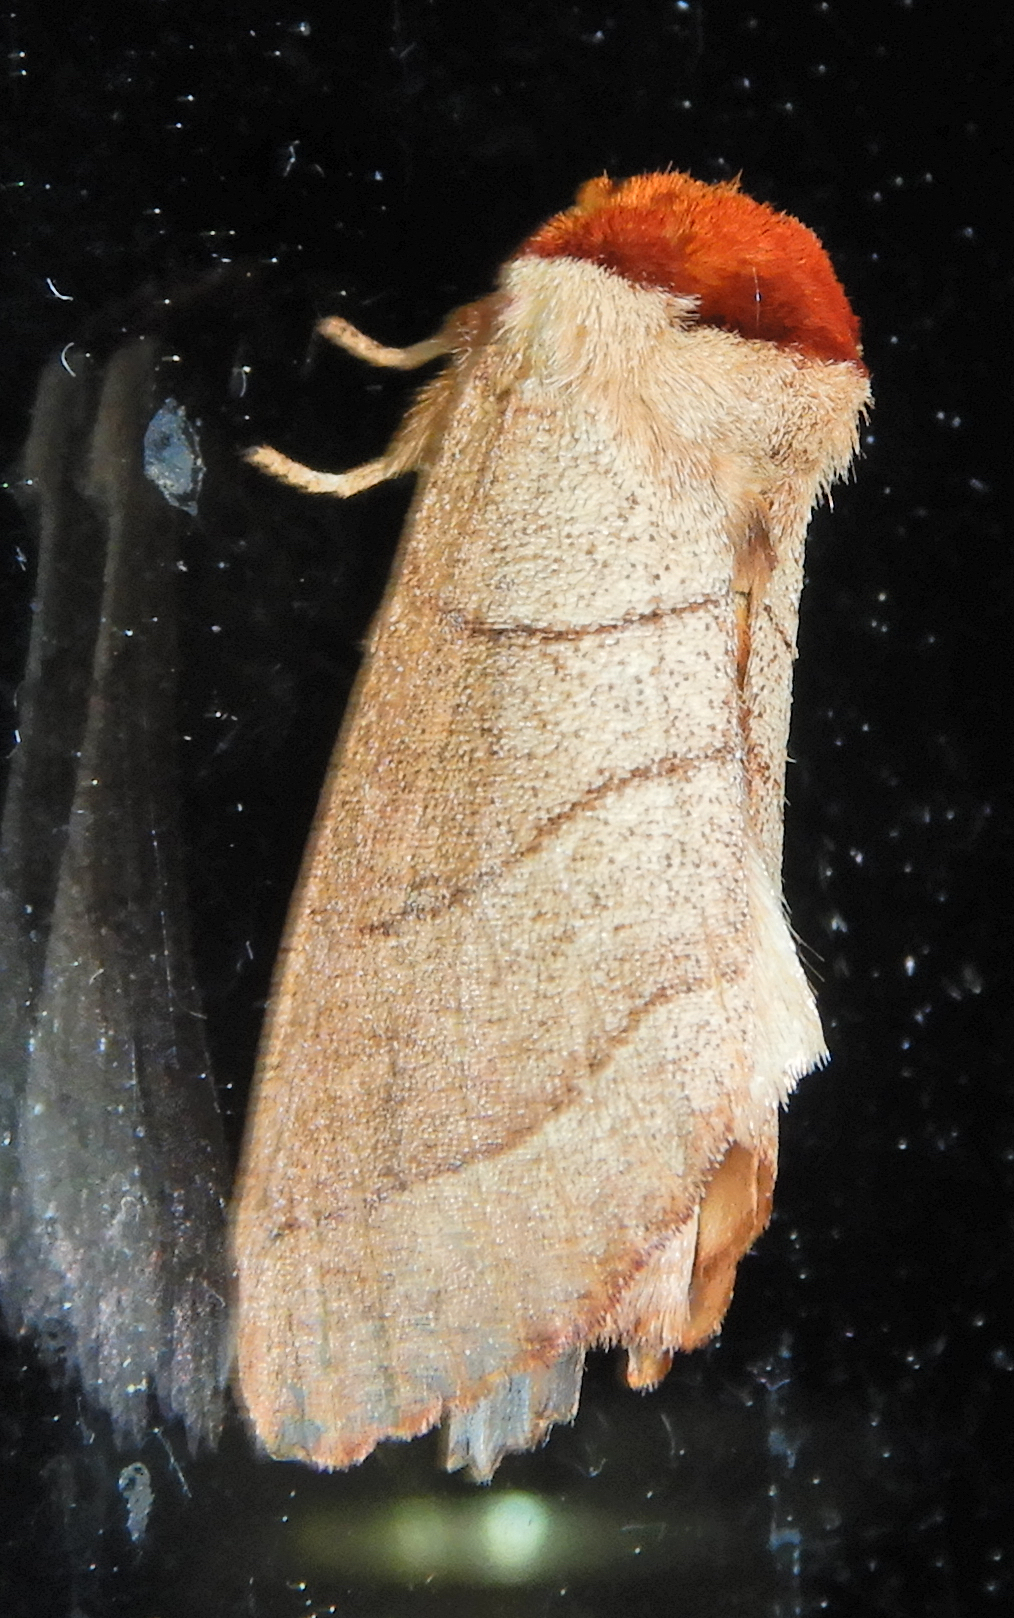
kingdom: Animalia
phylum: Arthropoda
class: Insecta
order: Lepidoptera
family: Notodontidae
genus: Datana
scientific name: Datana ministra
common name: Yellow-necked caterpillar moth
